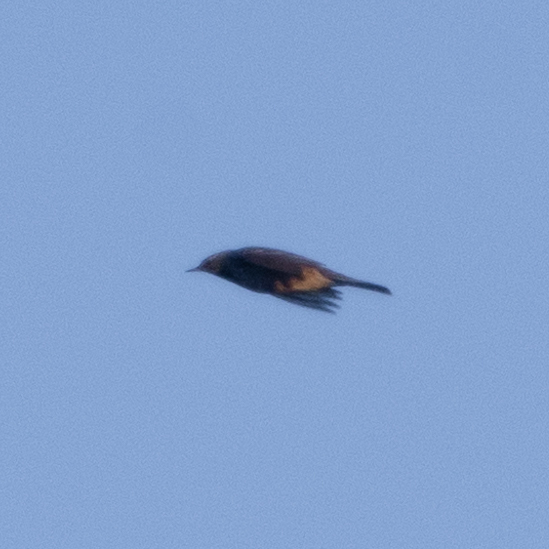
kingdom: Animalia
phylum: Chordata
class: Aves
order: Passeriformes
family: Motacillidae
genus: Anthus
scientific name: Anthus spinoletta
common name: Water pipit
